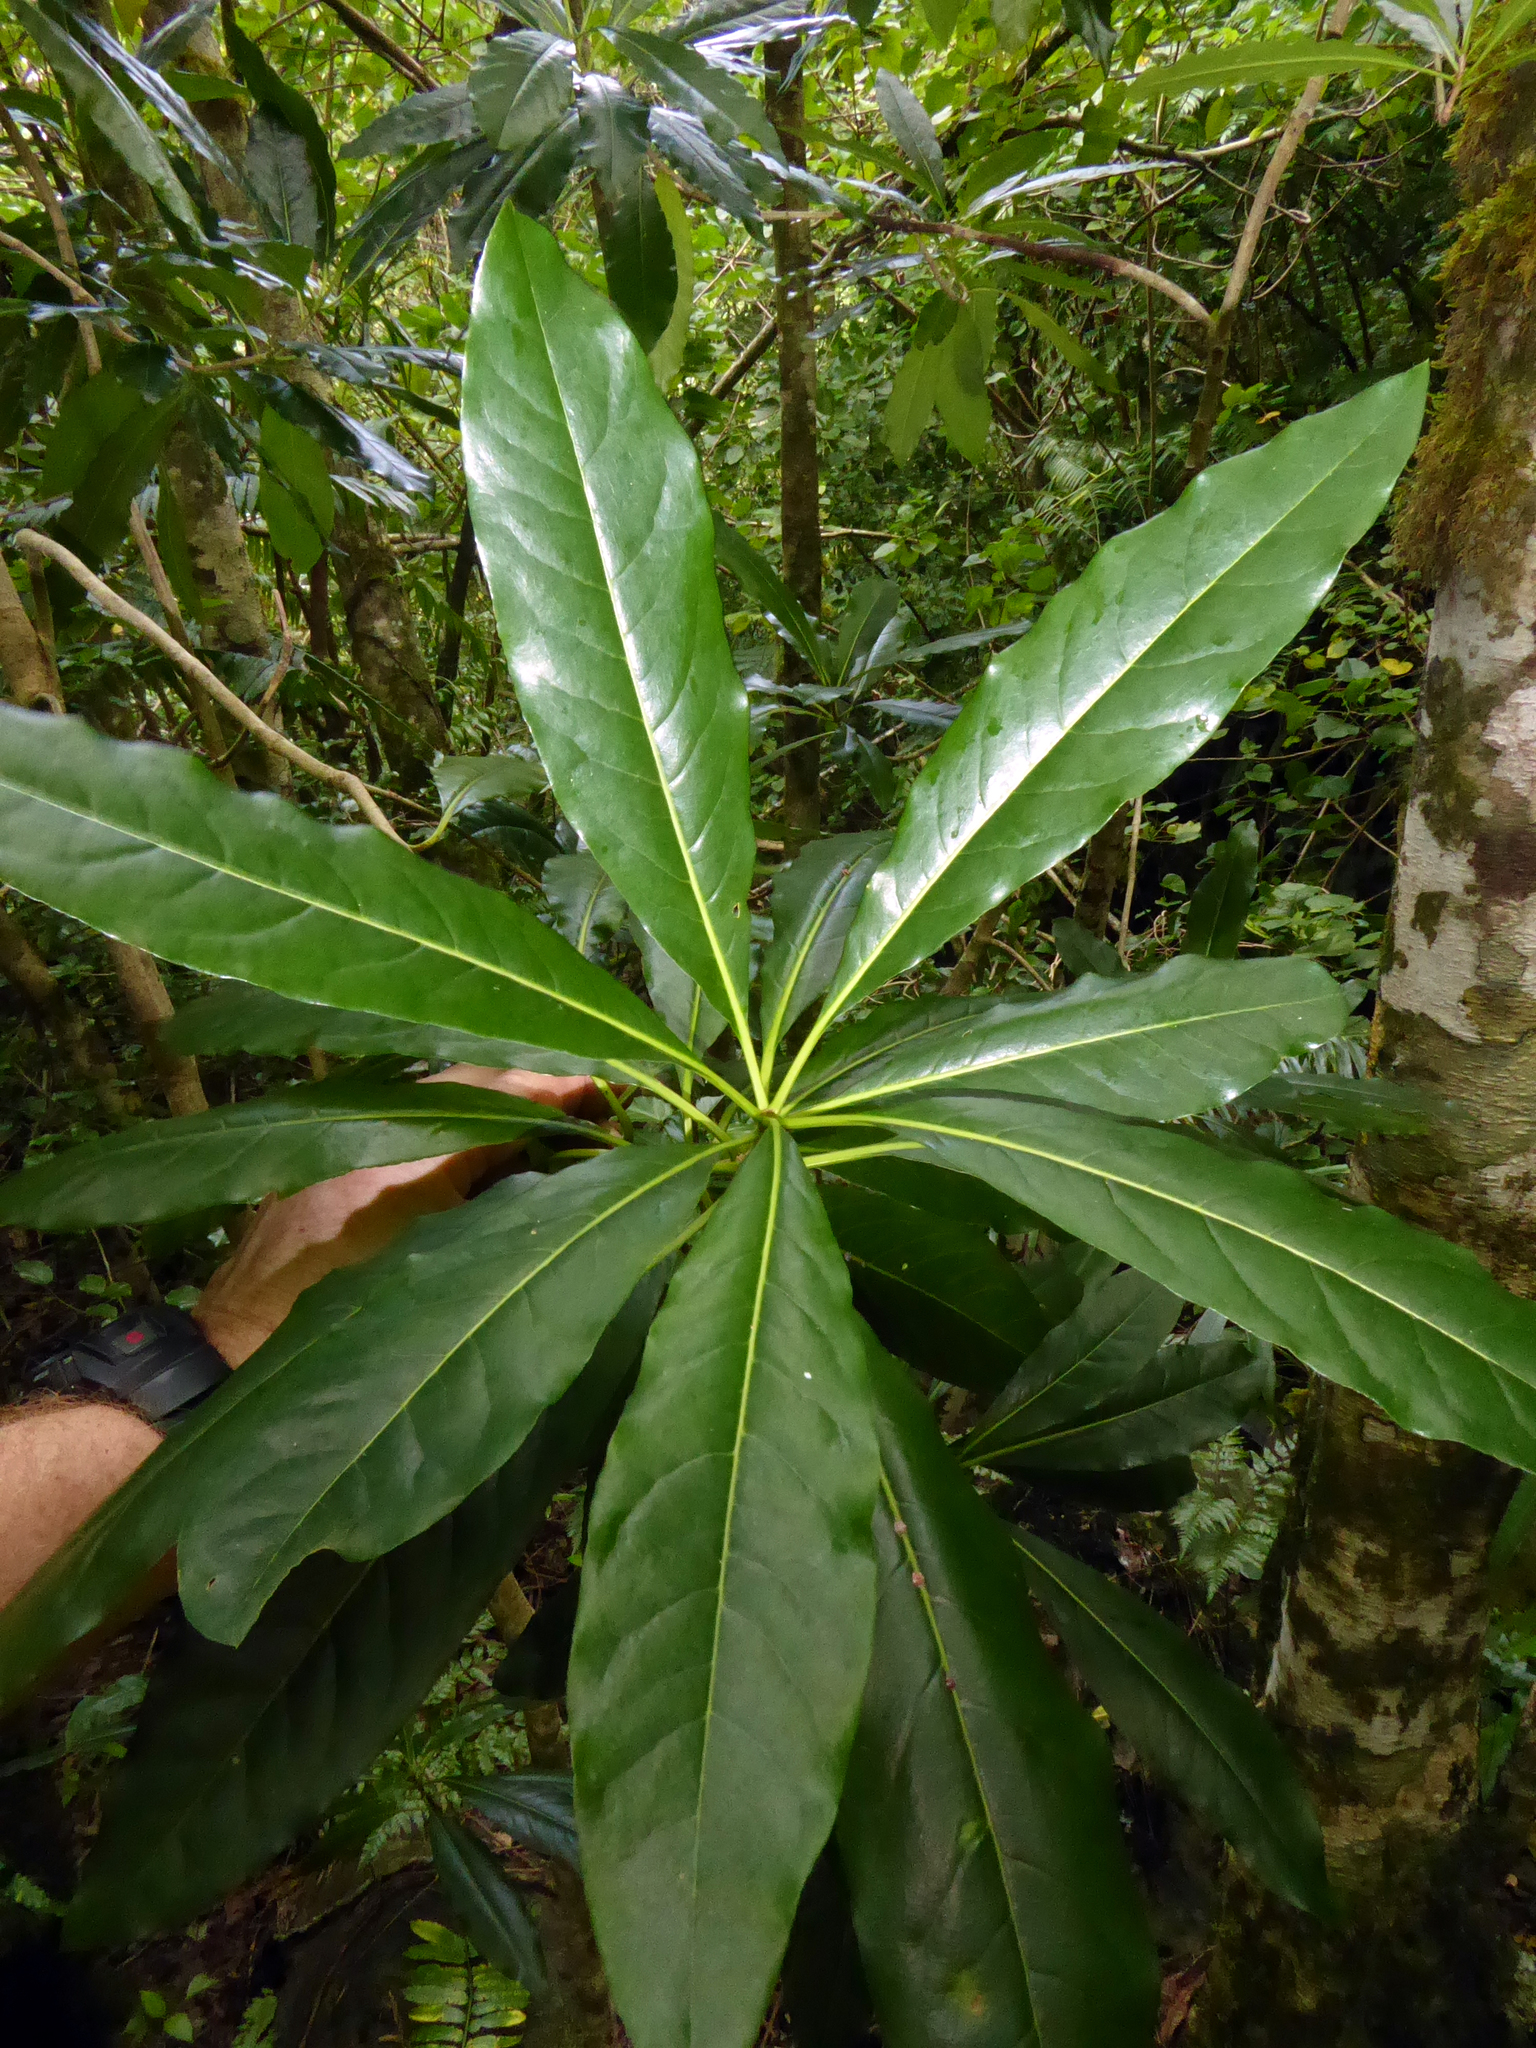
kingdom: Plantae
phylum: Tracheophyta
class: Magnoliopsida
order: Apiales
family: Pittosporaceae
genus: Pittosporum
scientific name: Pittosporum rarotongense
